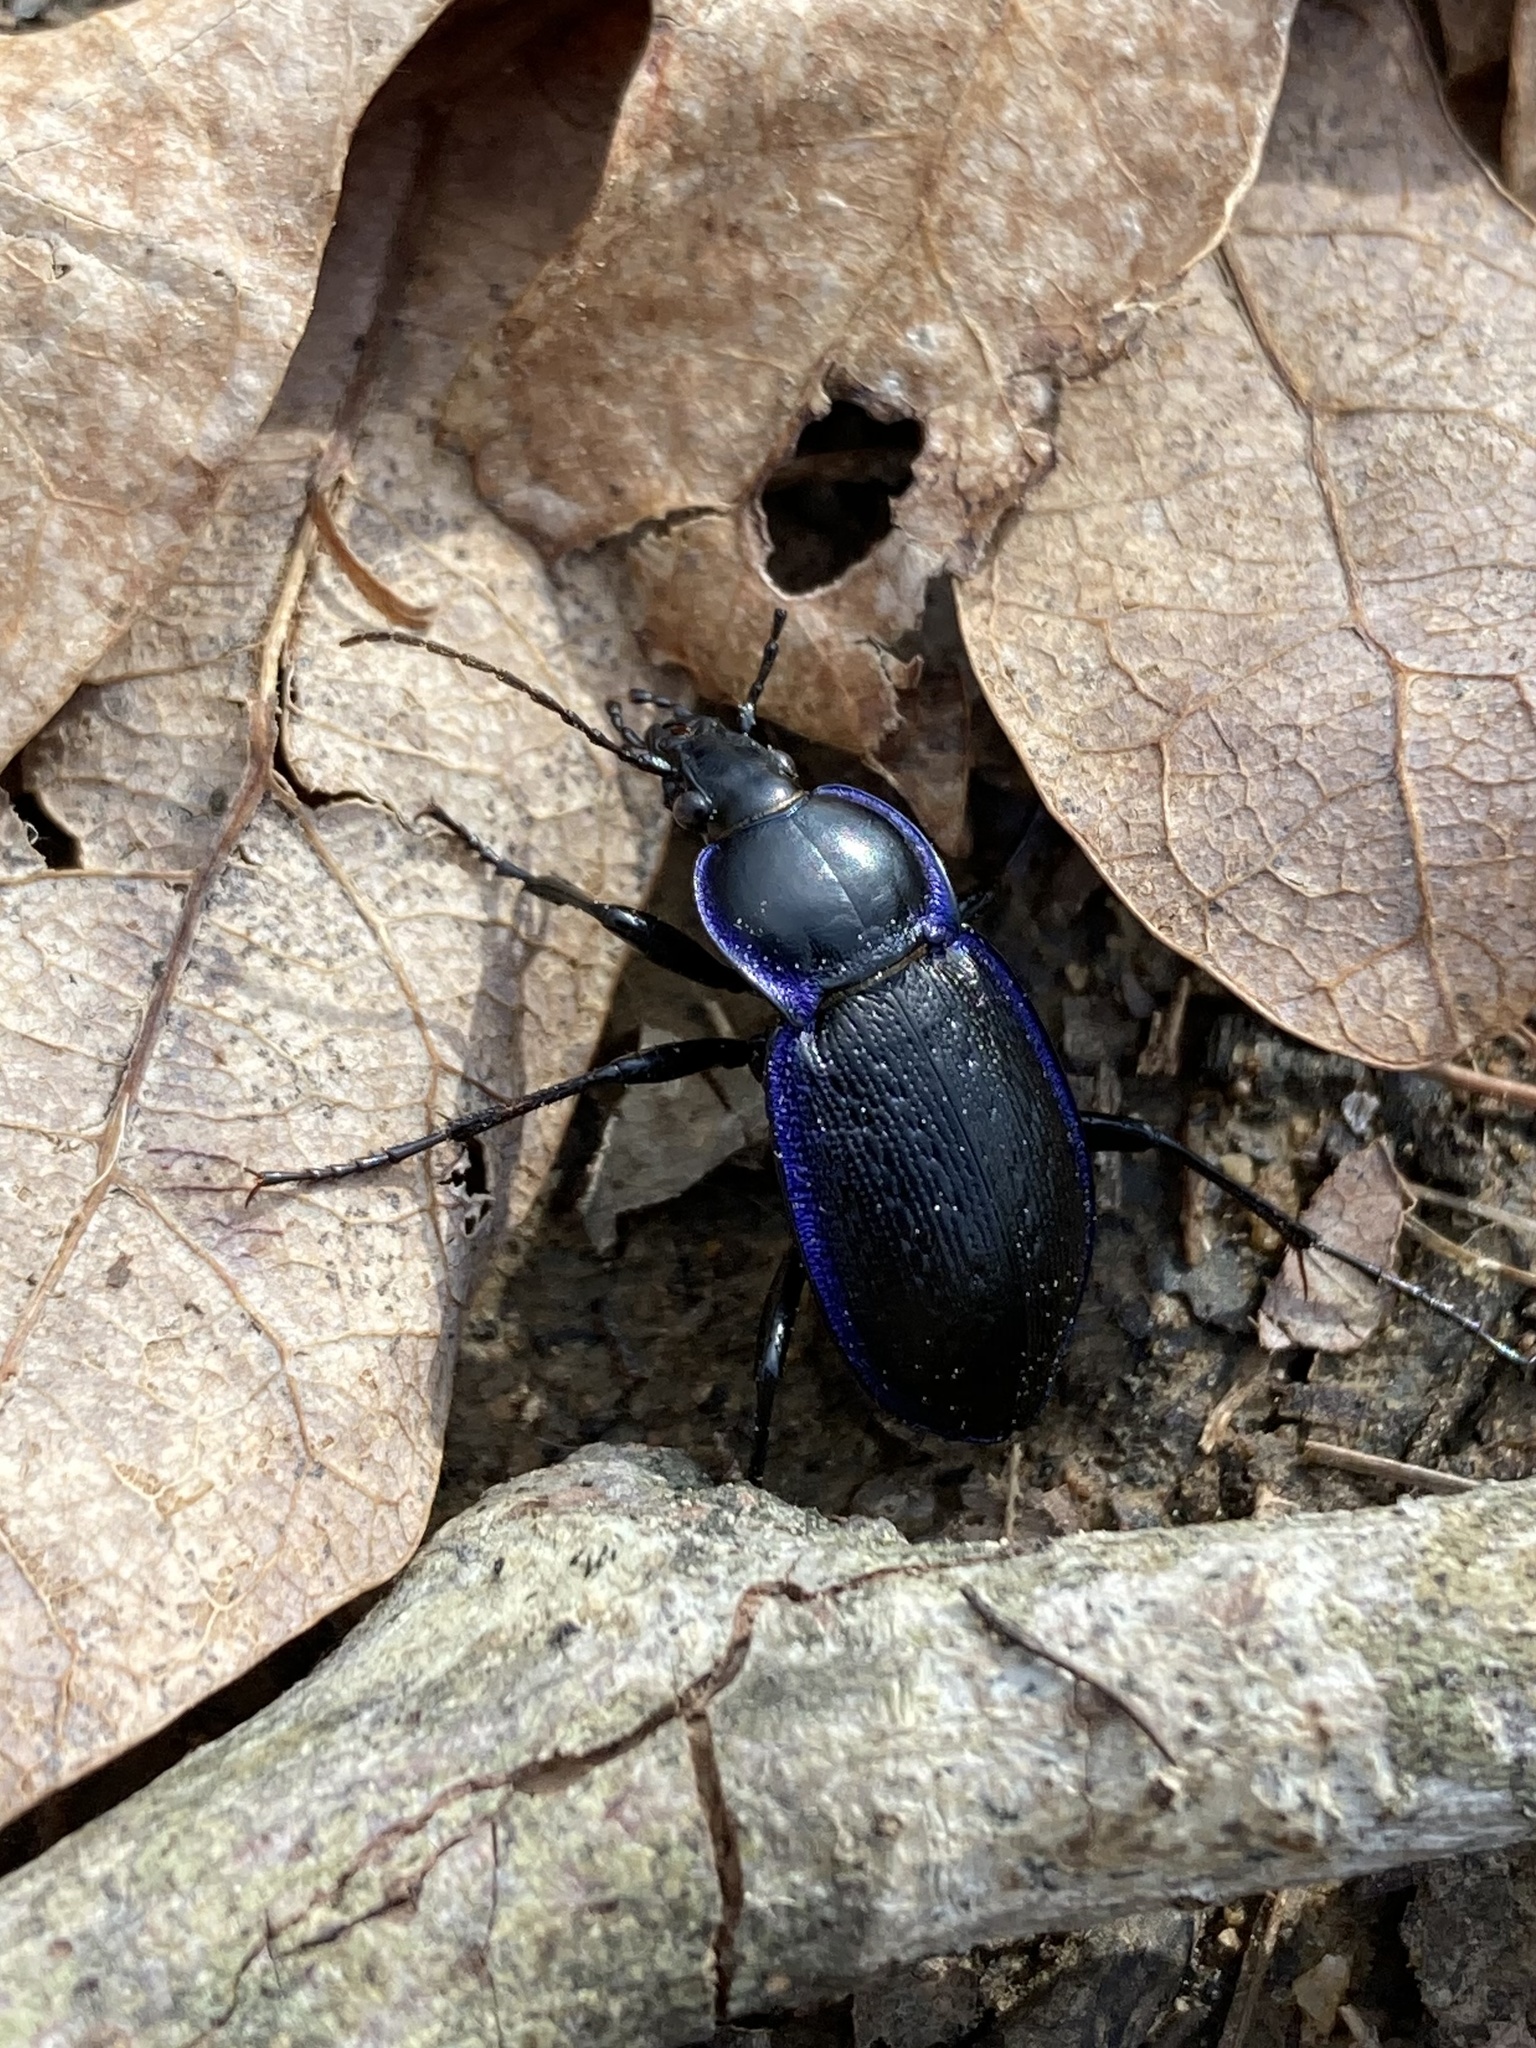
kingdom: Animalia
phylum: Arthropoda
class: Insecta
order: Coleoptera
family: Carabidae
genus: Carabus
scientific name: Carabus serratus
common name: Serrate-shoulder worm and slug hunter
